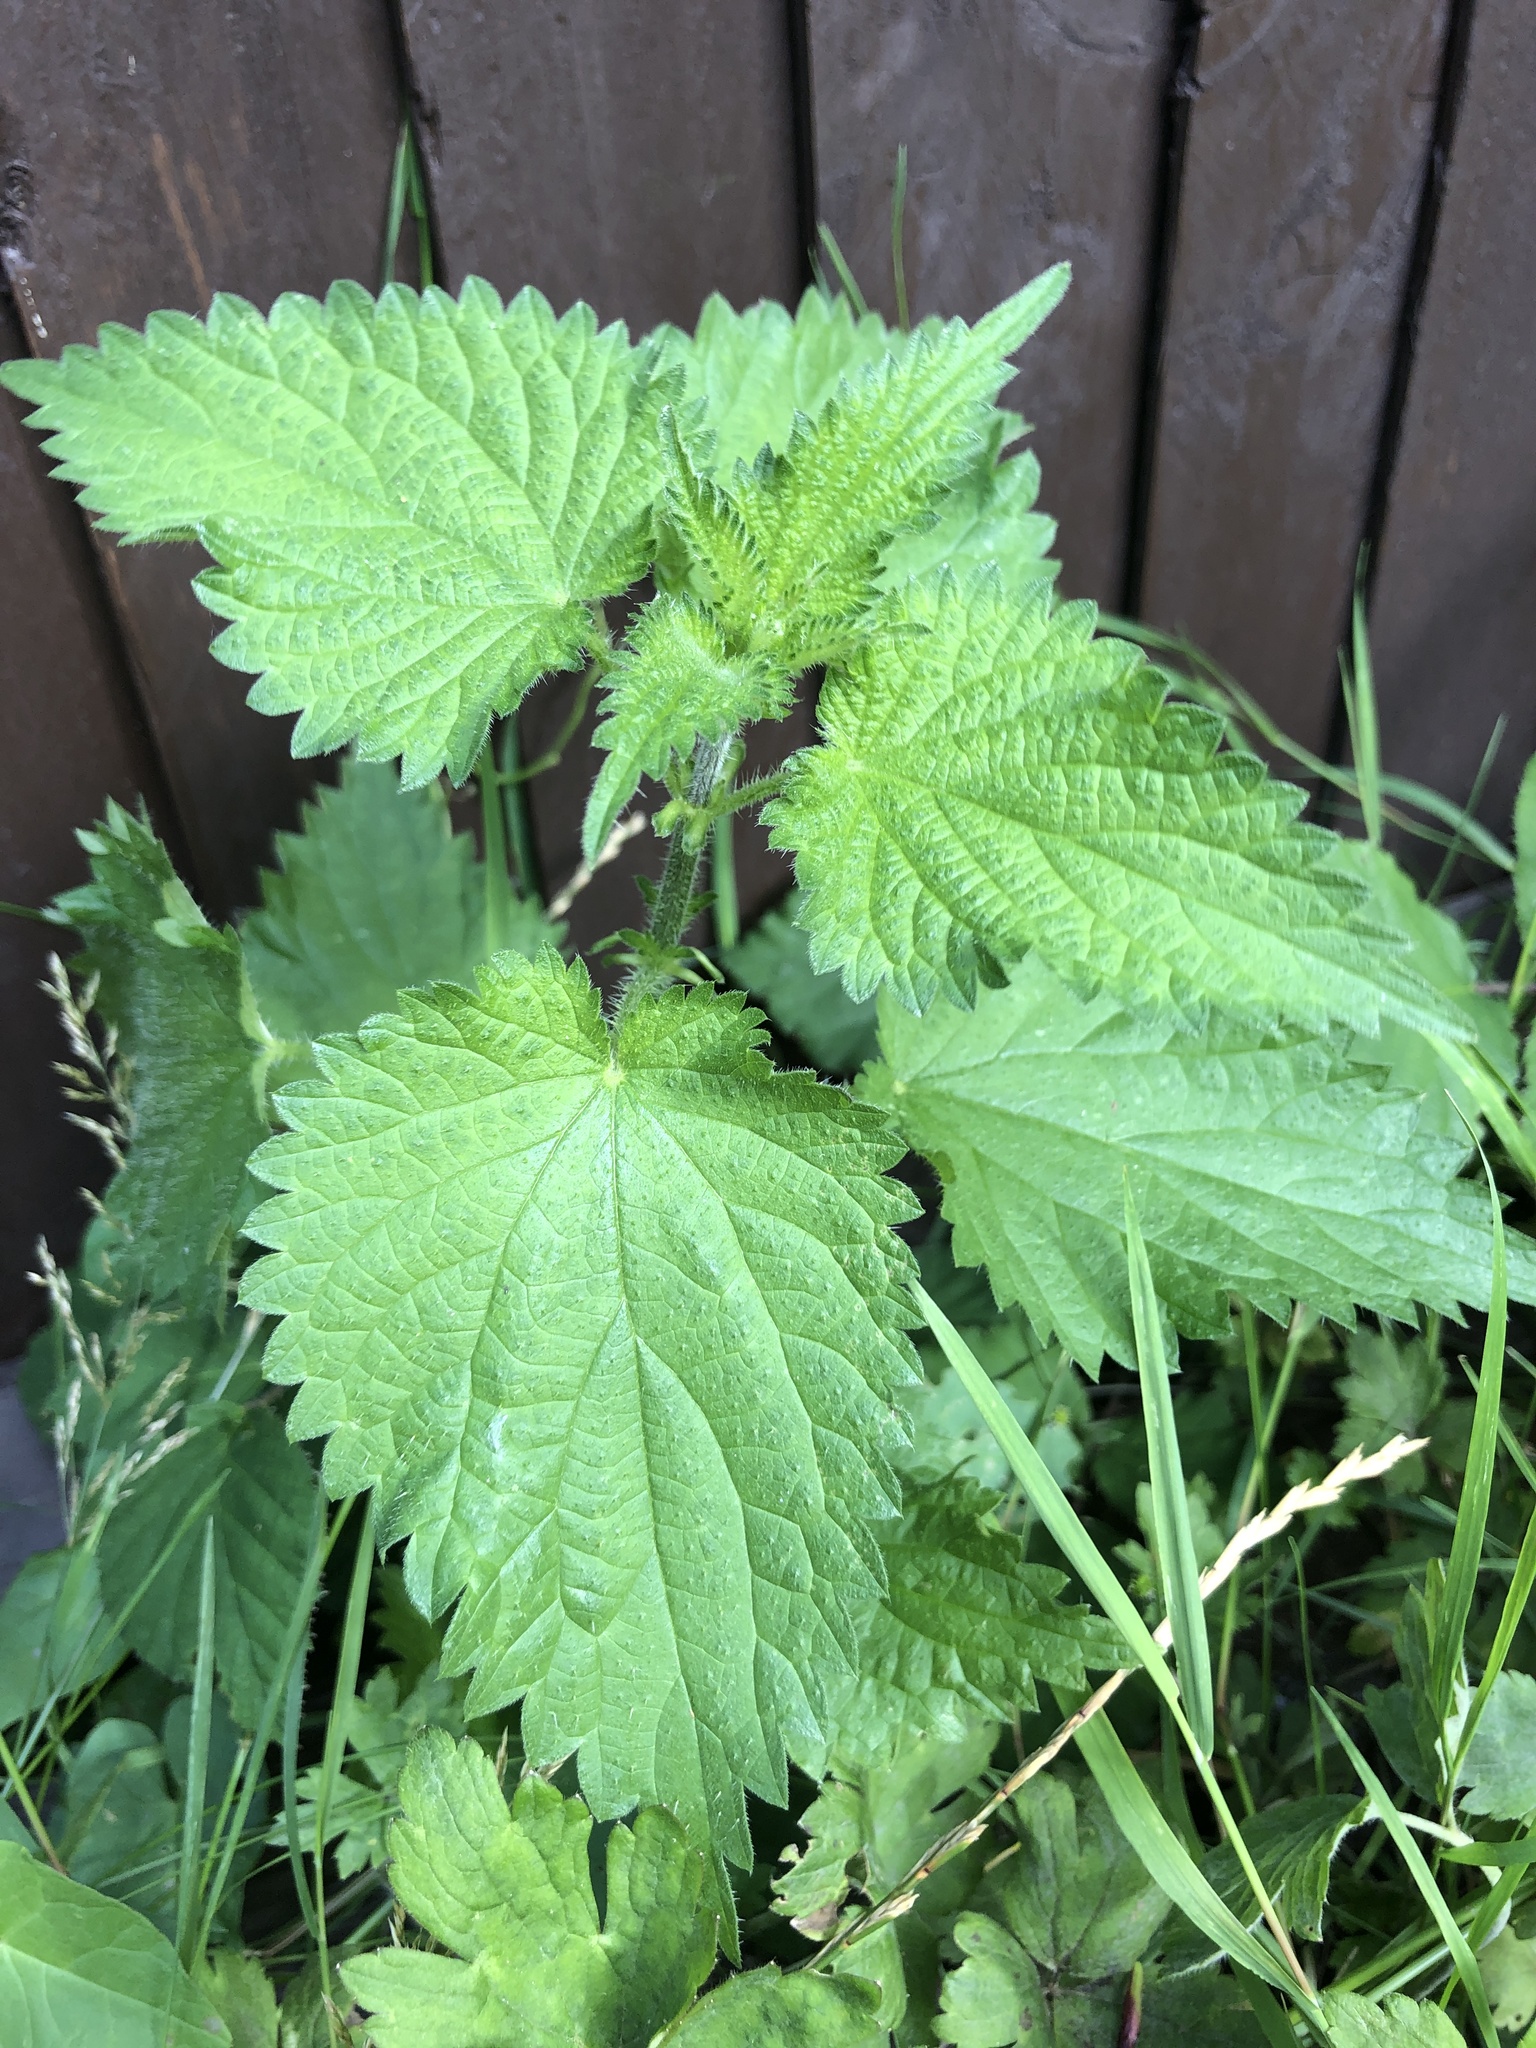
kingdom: Plantae
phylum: Tracheophyta
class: Magnoliopsida
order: Rosales
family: Urticaceae
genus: Urtica
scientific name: Urtica dioica
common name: Common nettle
